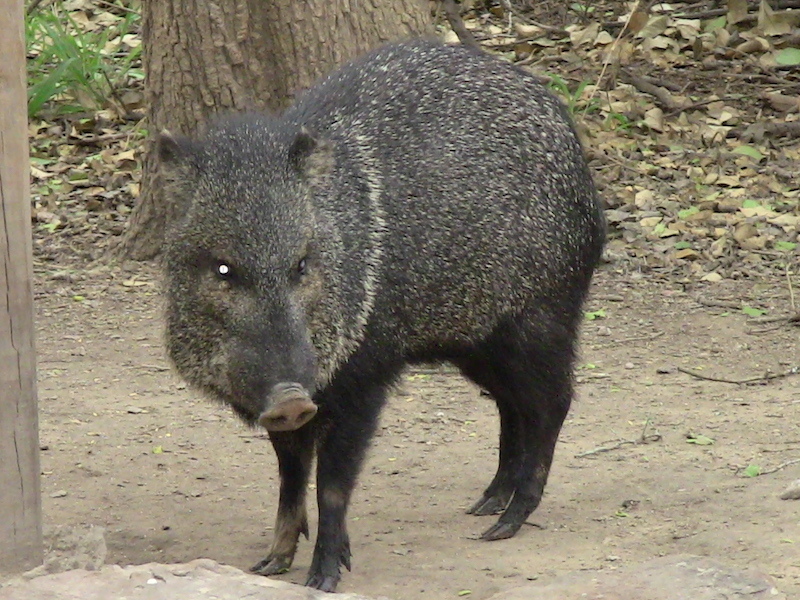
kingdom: Animalia
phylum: Chordata
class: Mammalia
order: Artiodactyla
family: Tayassuidae
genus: Pecari
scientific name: Pecari tajacu
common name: Collared peccary
